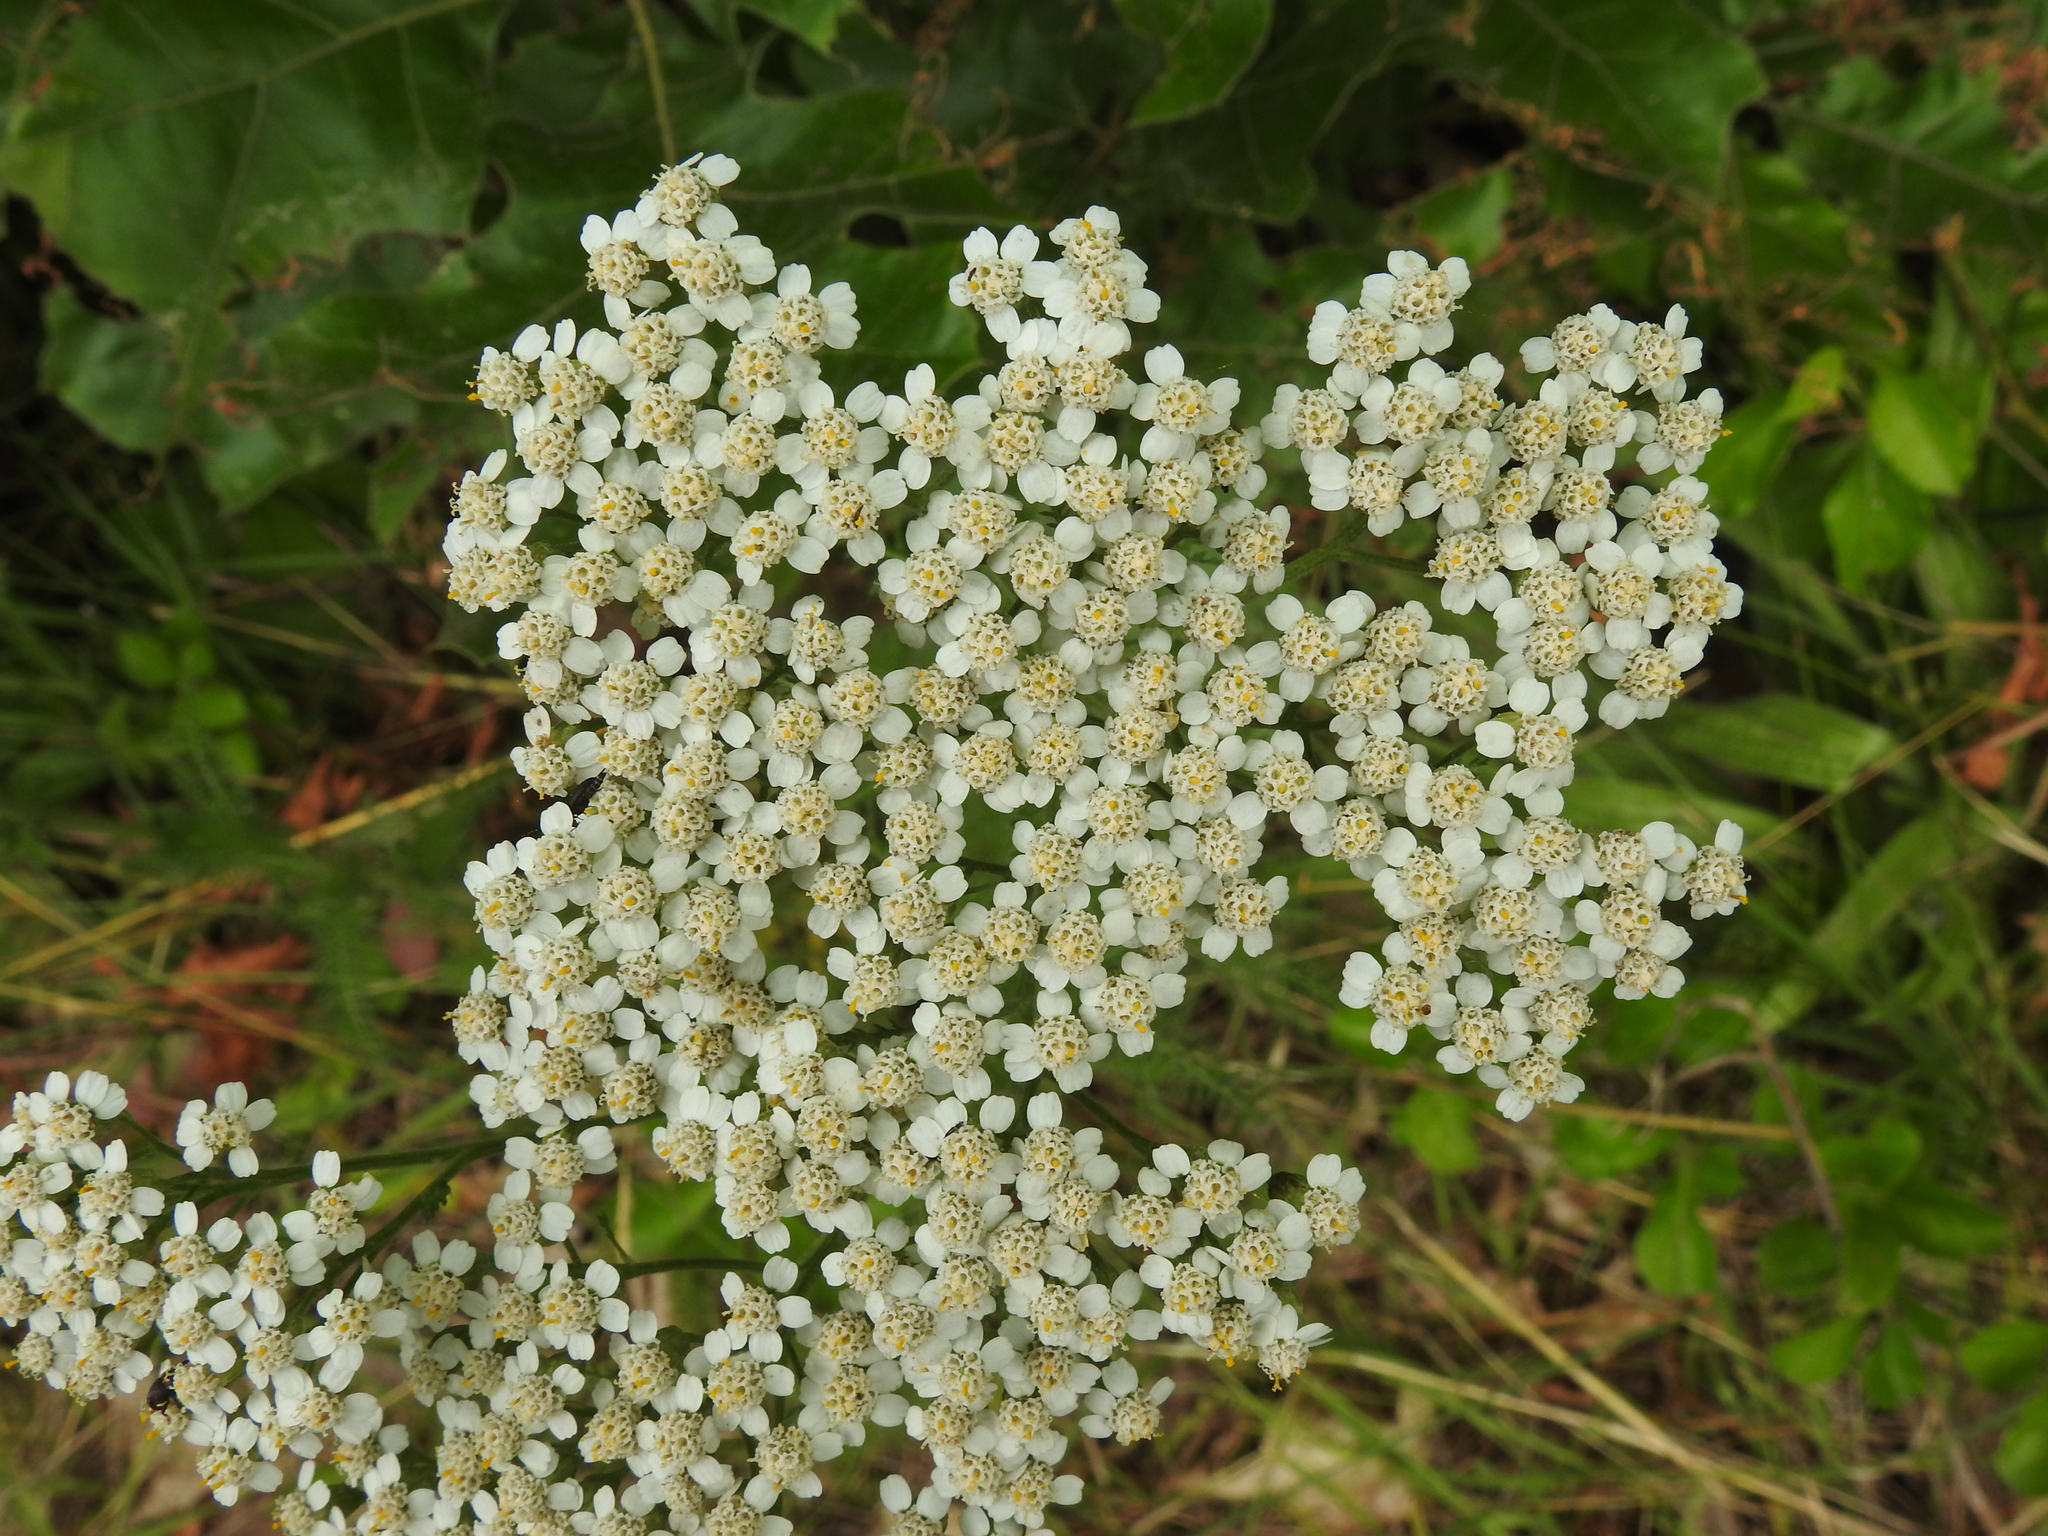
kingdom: Plantae
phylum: Tracheophyta
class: Magnoliopsida
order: Asterales
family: Asteraceae
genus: Achillea
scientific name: Achillea millefolium
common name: Yarrow
